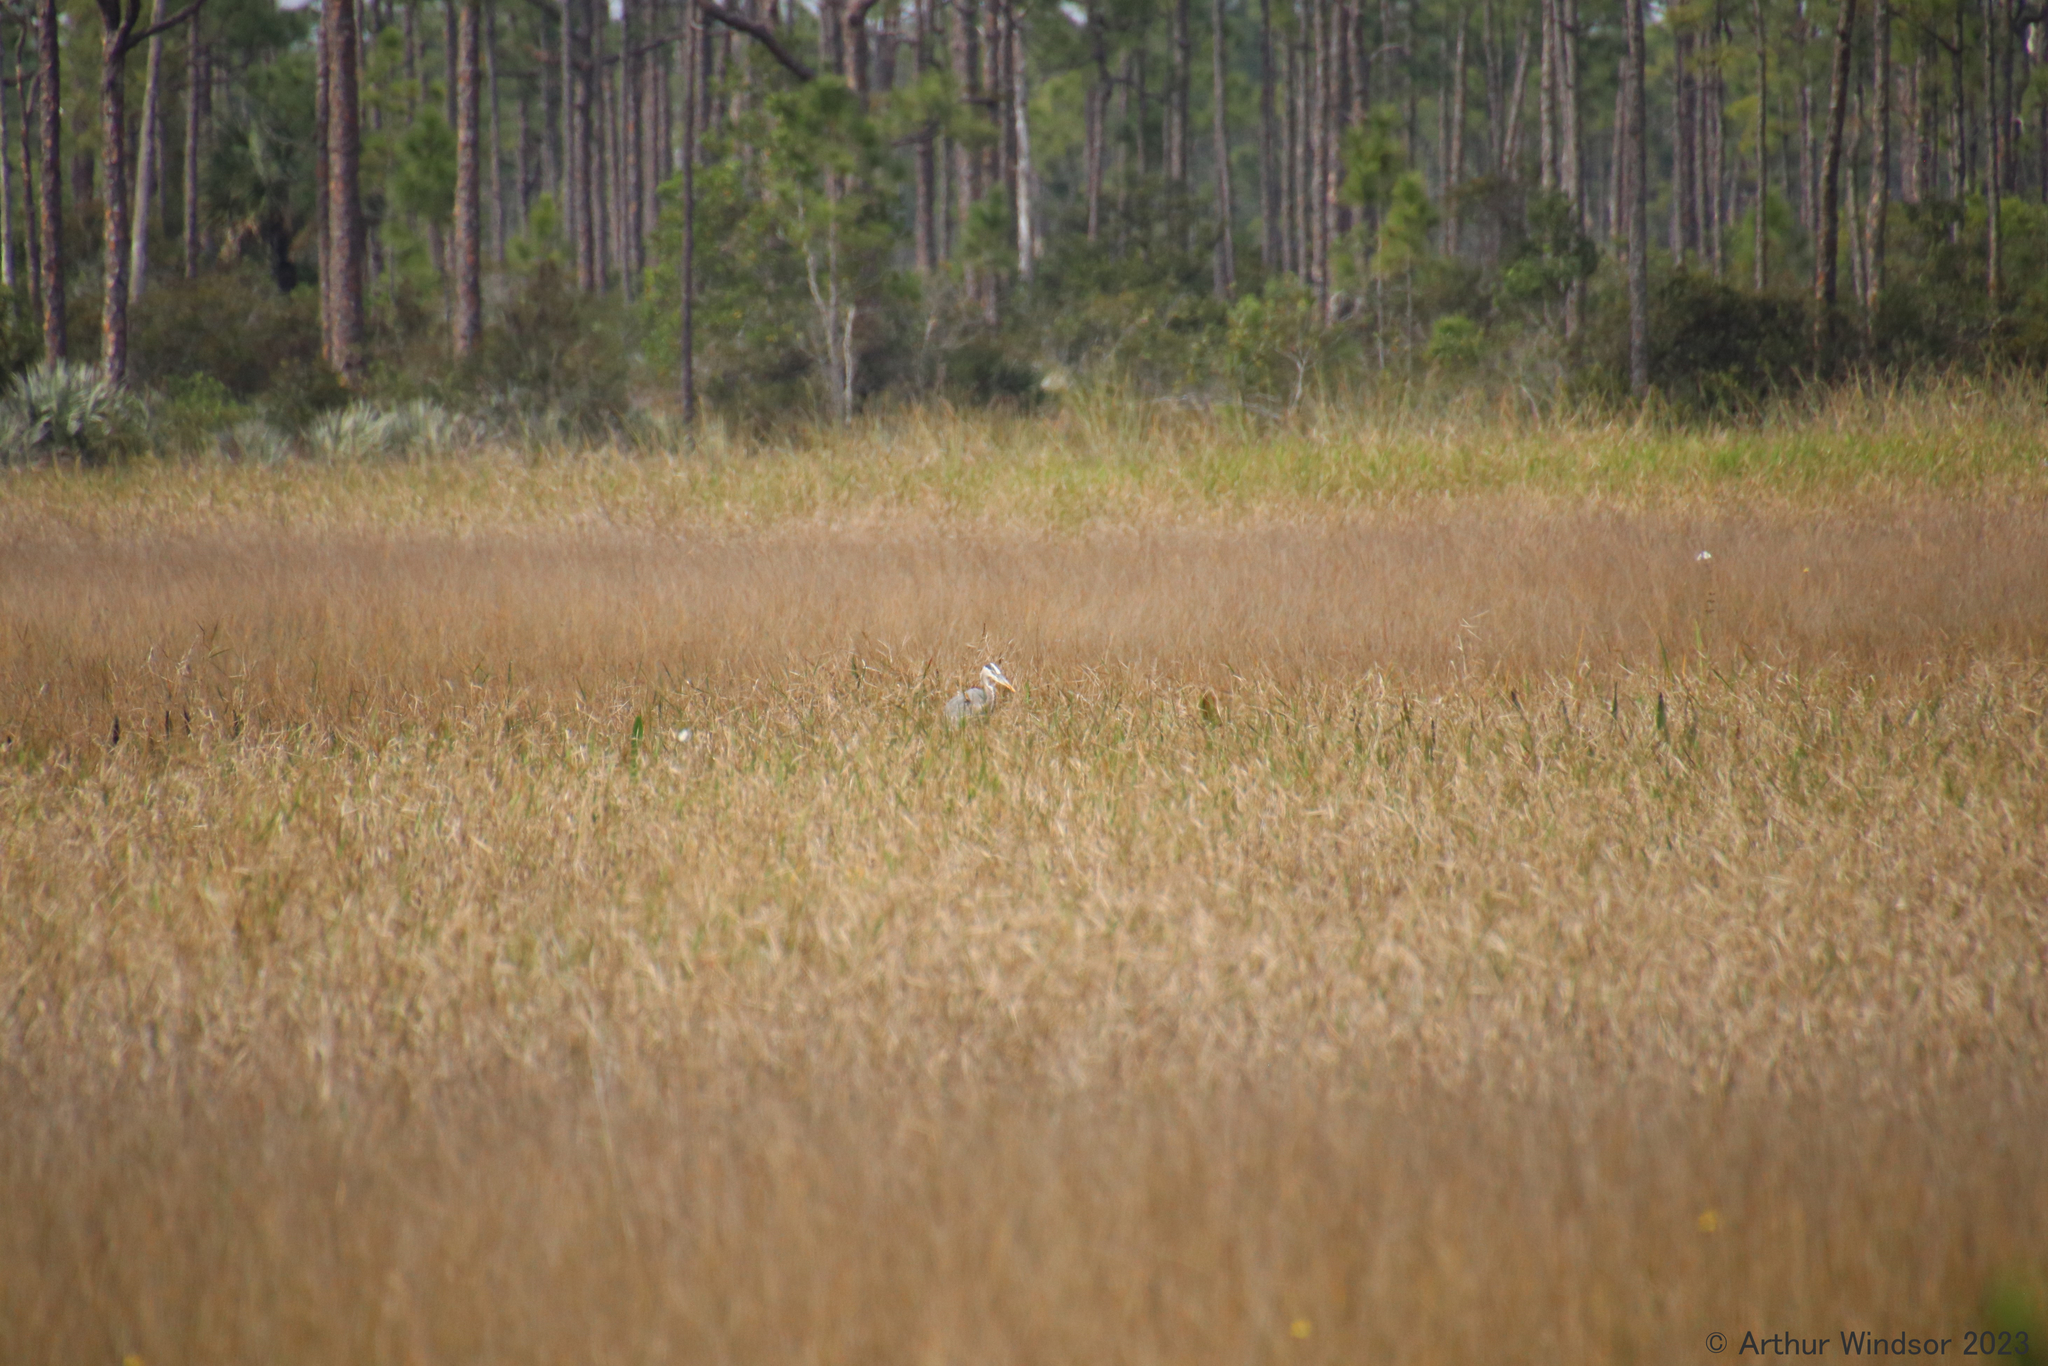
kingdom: Animalia
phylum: Chordata
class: Aves
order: Pelecaniformes
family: Ardeidae
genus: Ardea
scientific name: Ardea herodias
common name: Great blue heron
